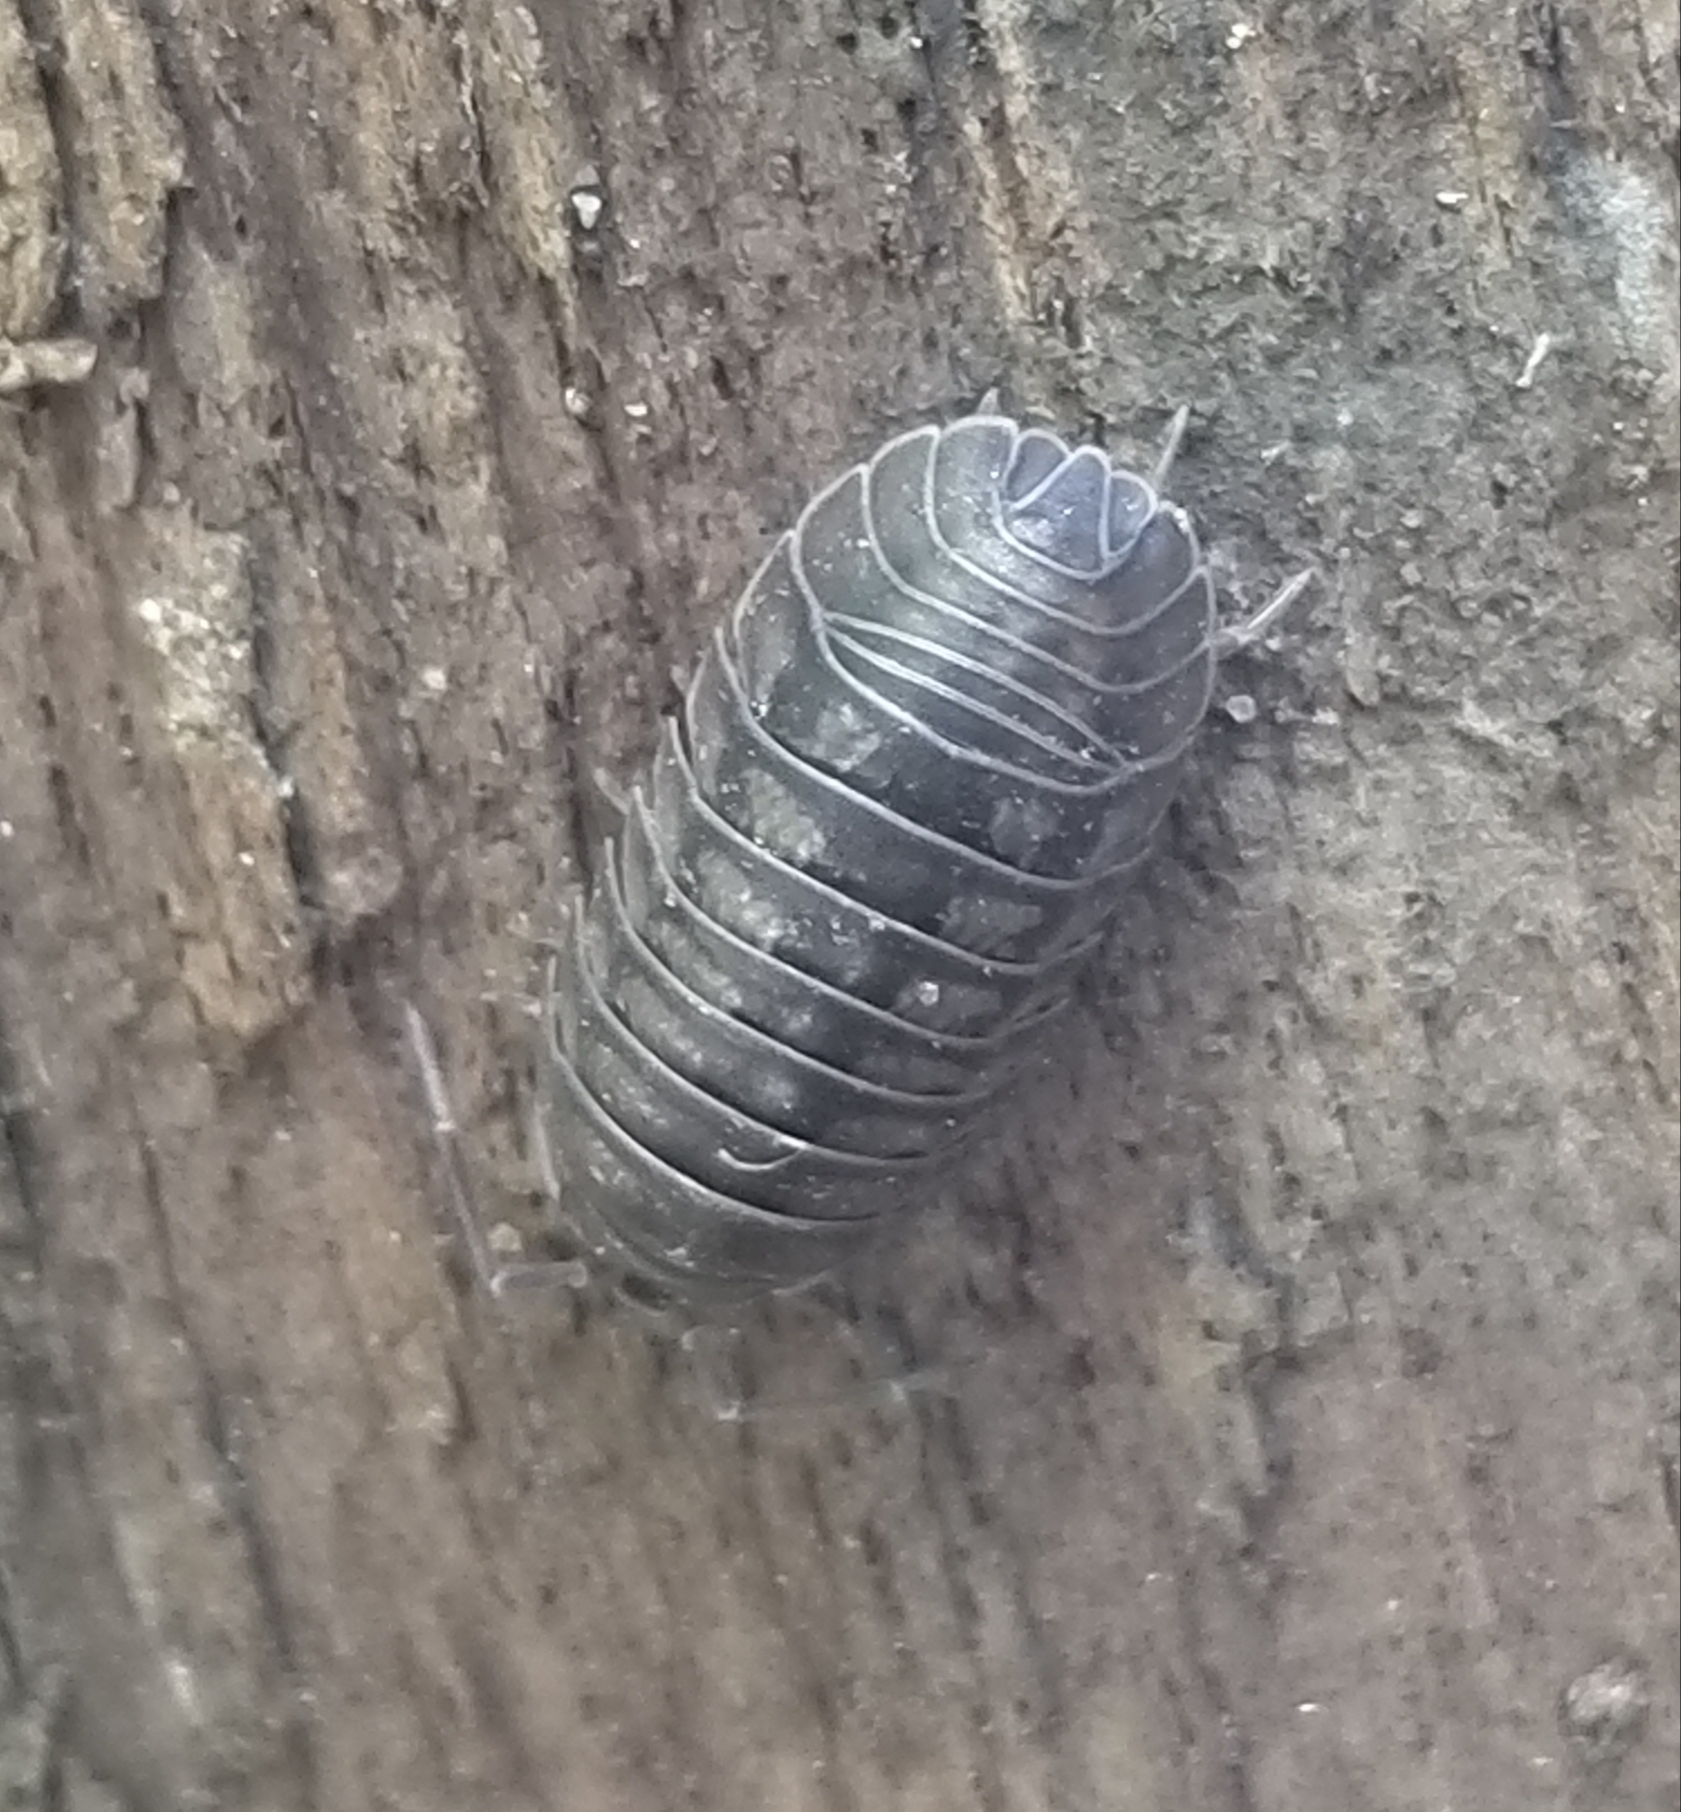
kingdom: Animalia
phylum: Arthropoda
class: Malacostraca
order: Isopoda
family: Armadillidiidae
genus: Armadillidium
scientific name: Armadillidium nasatum
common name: Isopod
